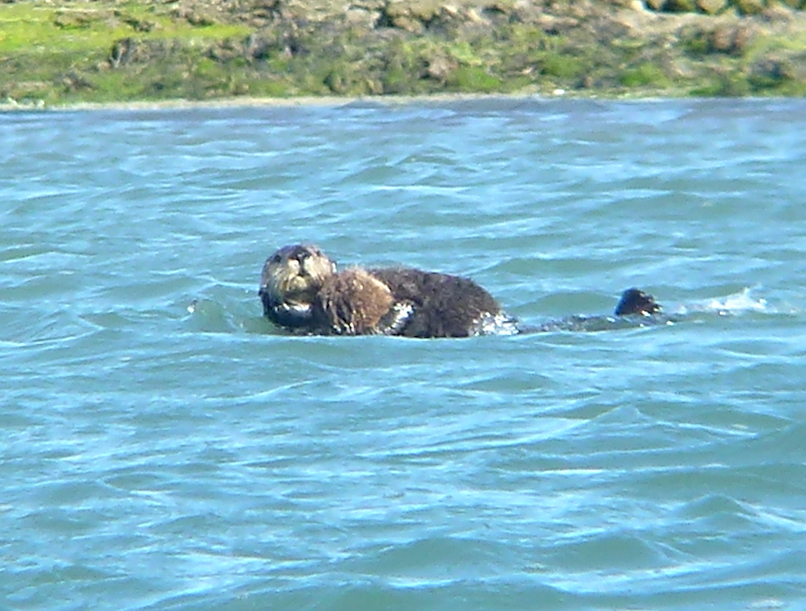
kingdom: Animalia
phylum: Chordata
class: Mammalia
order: Carnivora
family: Mustelidae
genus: Enhydra
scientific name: Enhydra lutris
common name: Sea otter
